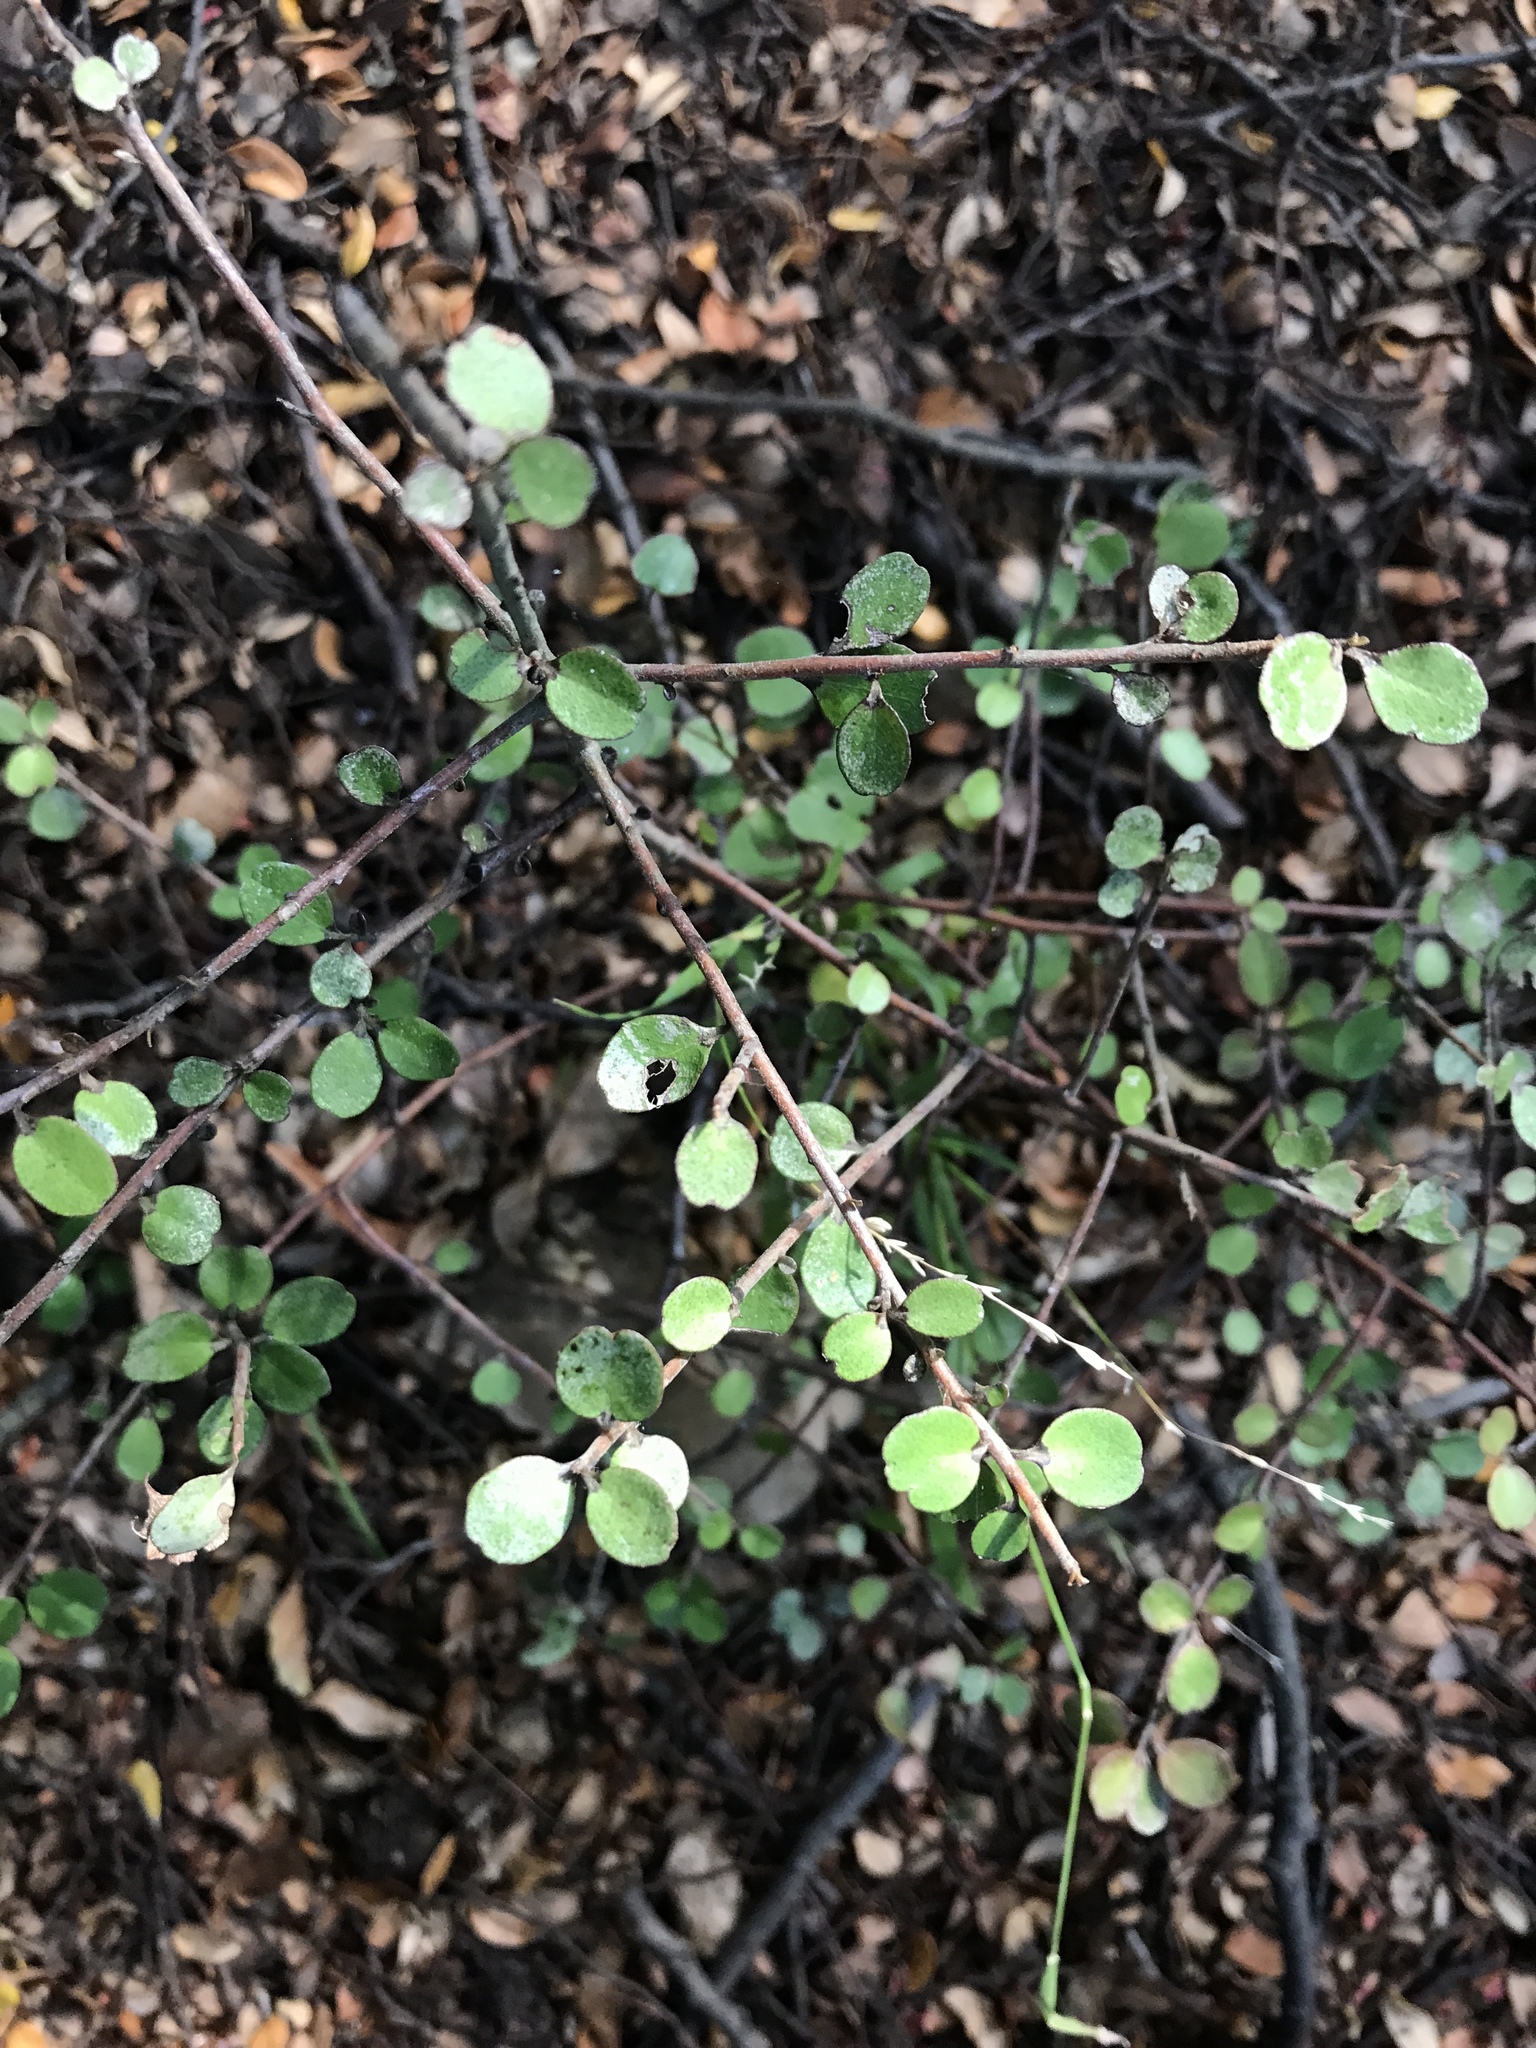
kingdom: Plantae
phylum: Tracheophyta
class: Magnoliopsida
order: Ericales
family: Primulaceae
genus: Myrsine
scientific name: Myrsine divaricata
